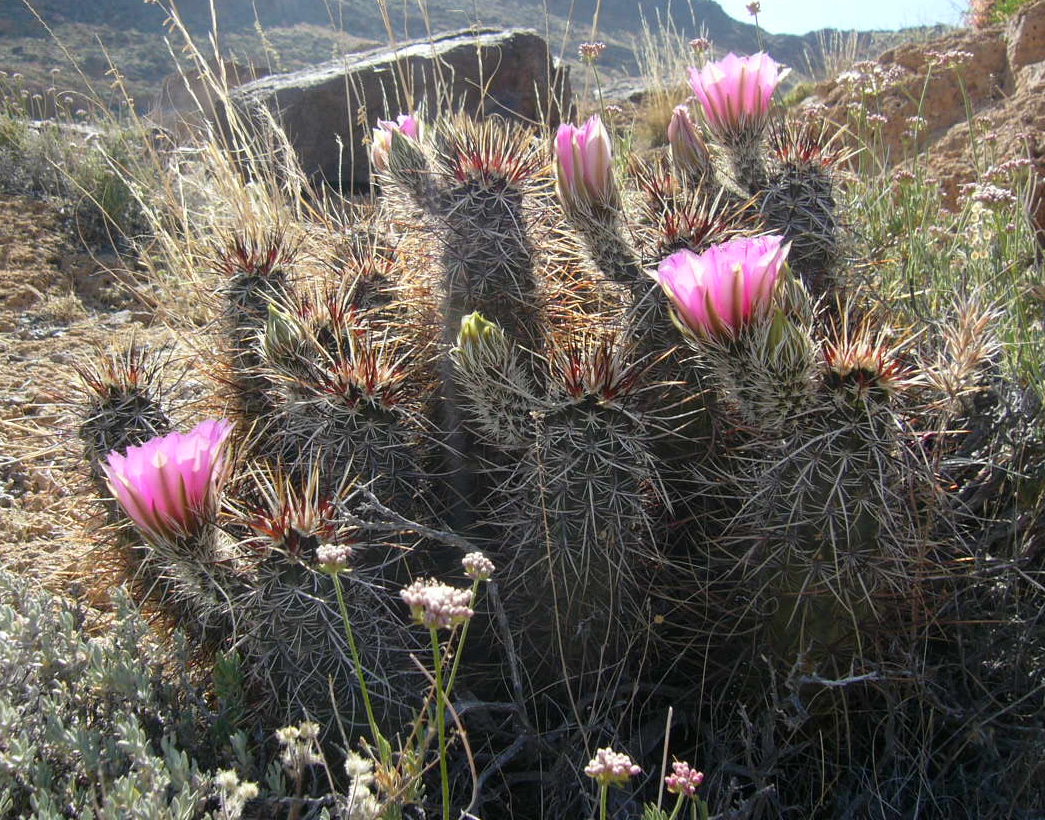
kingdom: Plantae
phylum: Tracheophyta
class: Magnoliopsida
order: Caryophyllales
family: Cactaceae
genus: Echinocereus
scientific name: Echinocereus engelmannii
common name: Engelmann's hedgehog cactus
